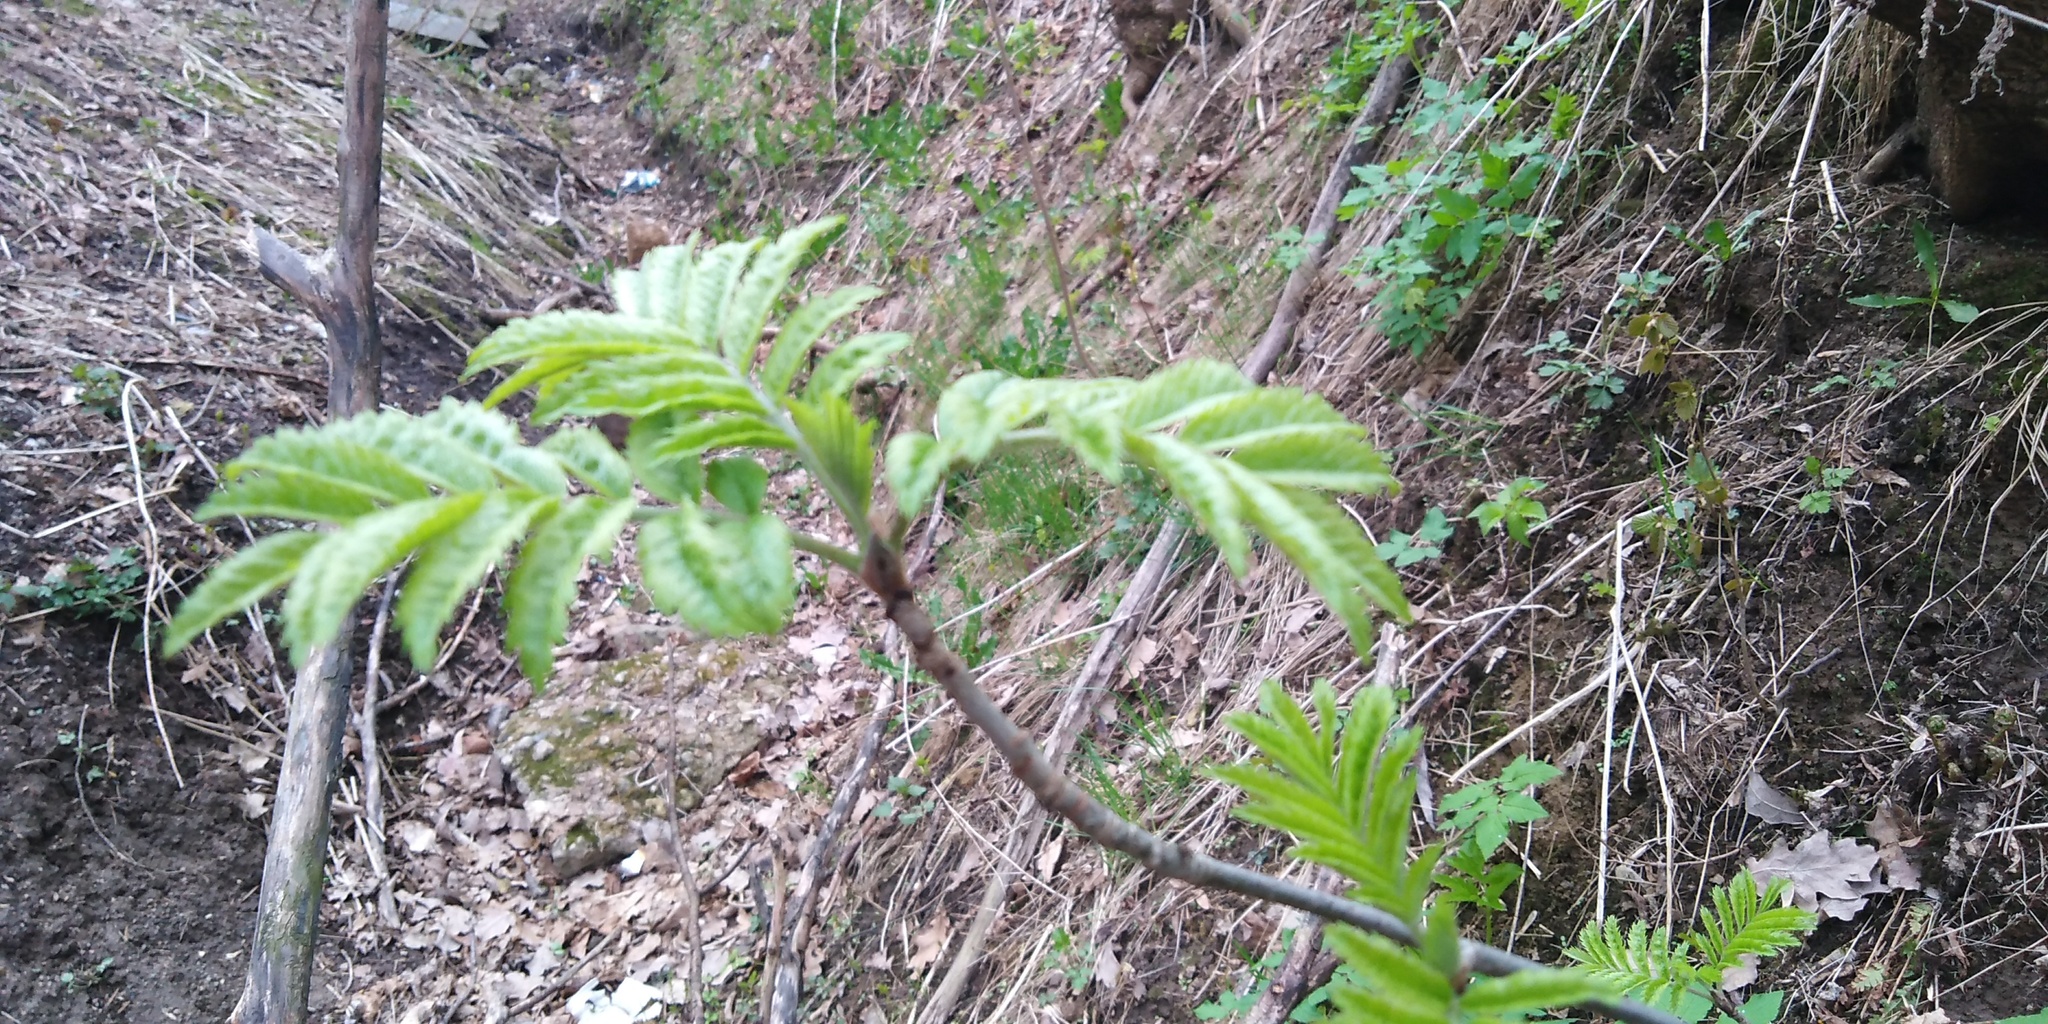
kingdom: Plantae
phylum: Tracheophyta
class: Magnoliopsida
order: Rosales
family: Rosaceae
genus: Sorbus
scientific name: Sorbus aucuparia
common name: Rowan
